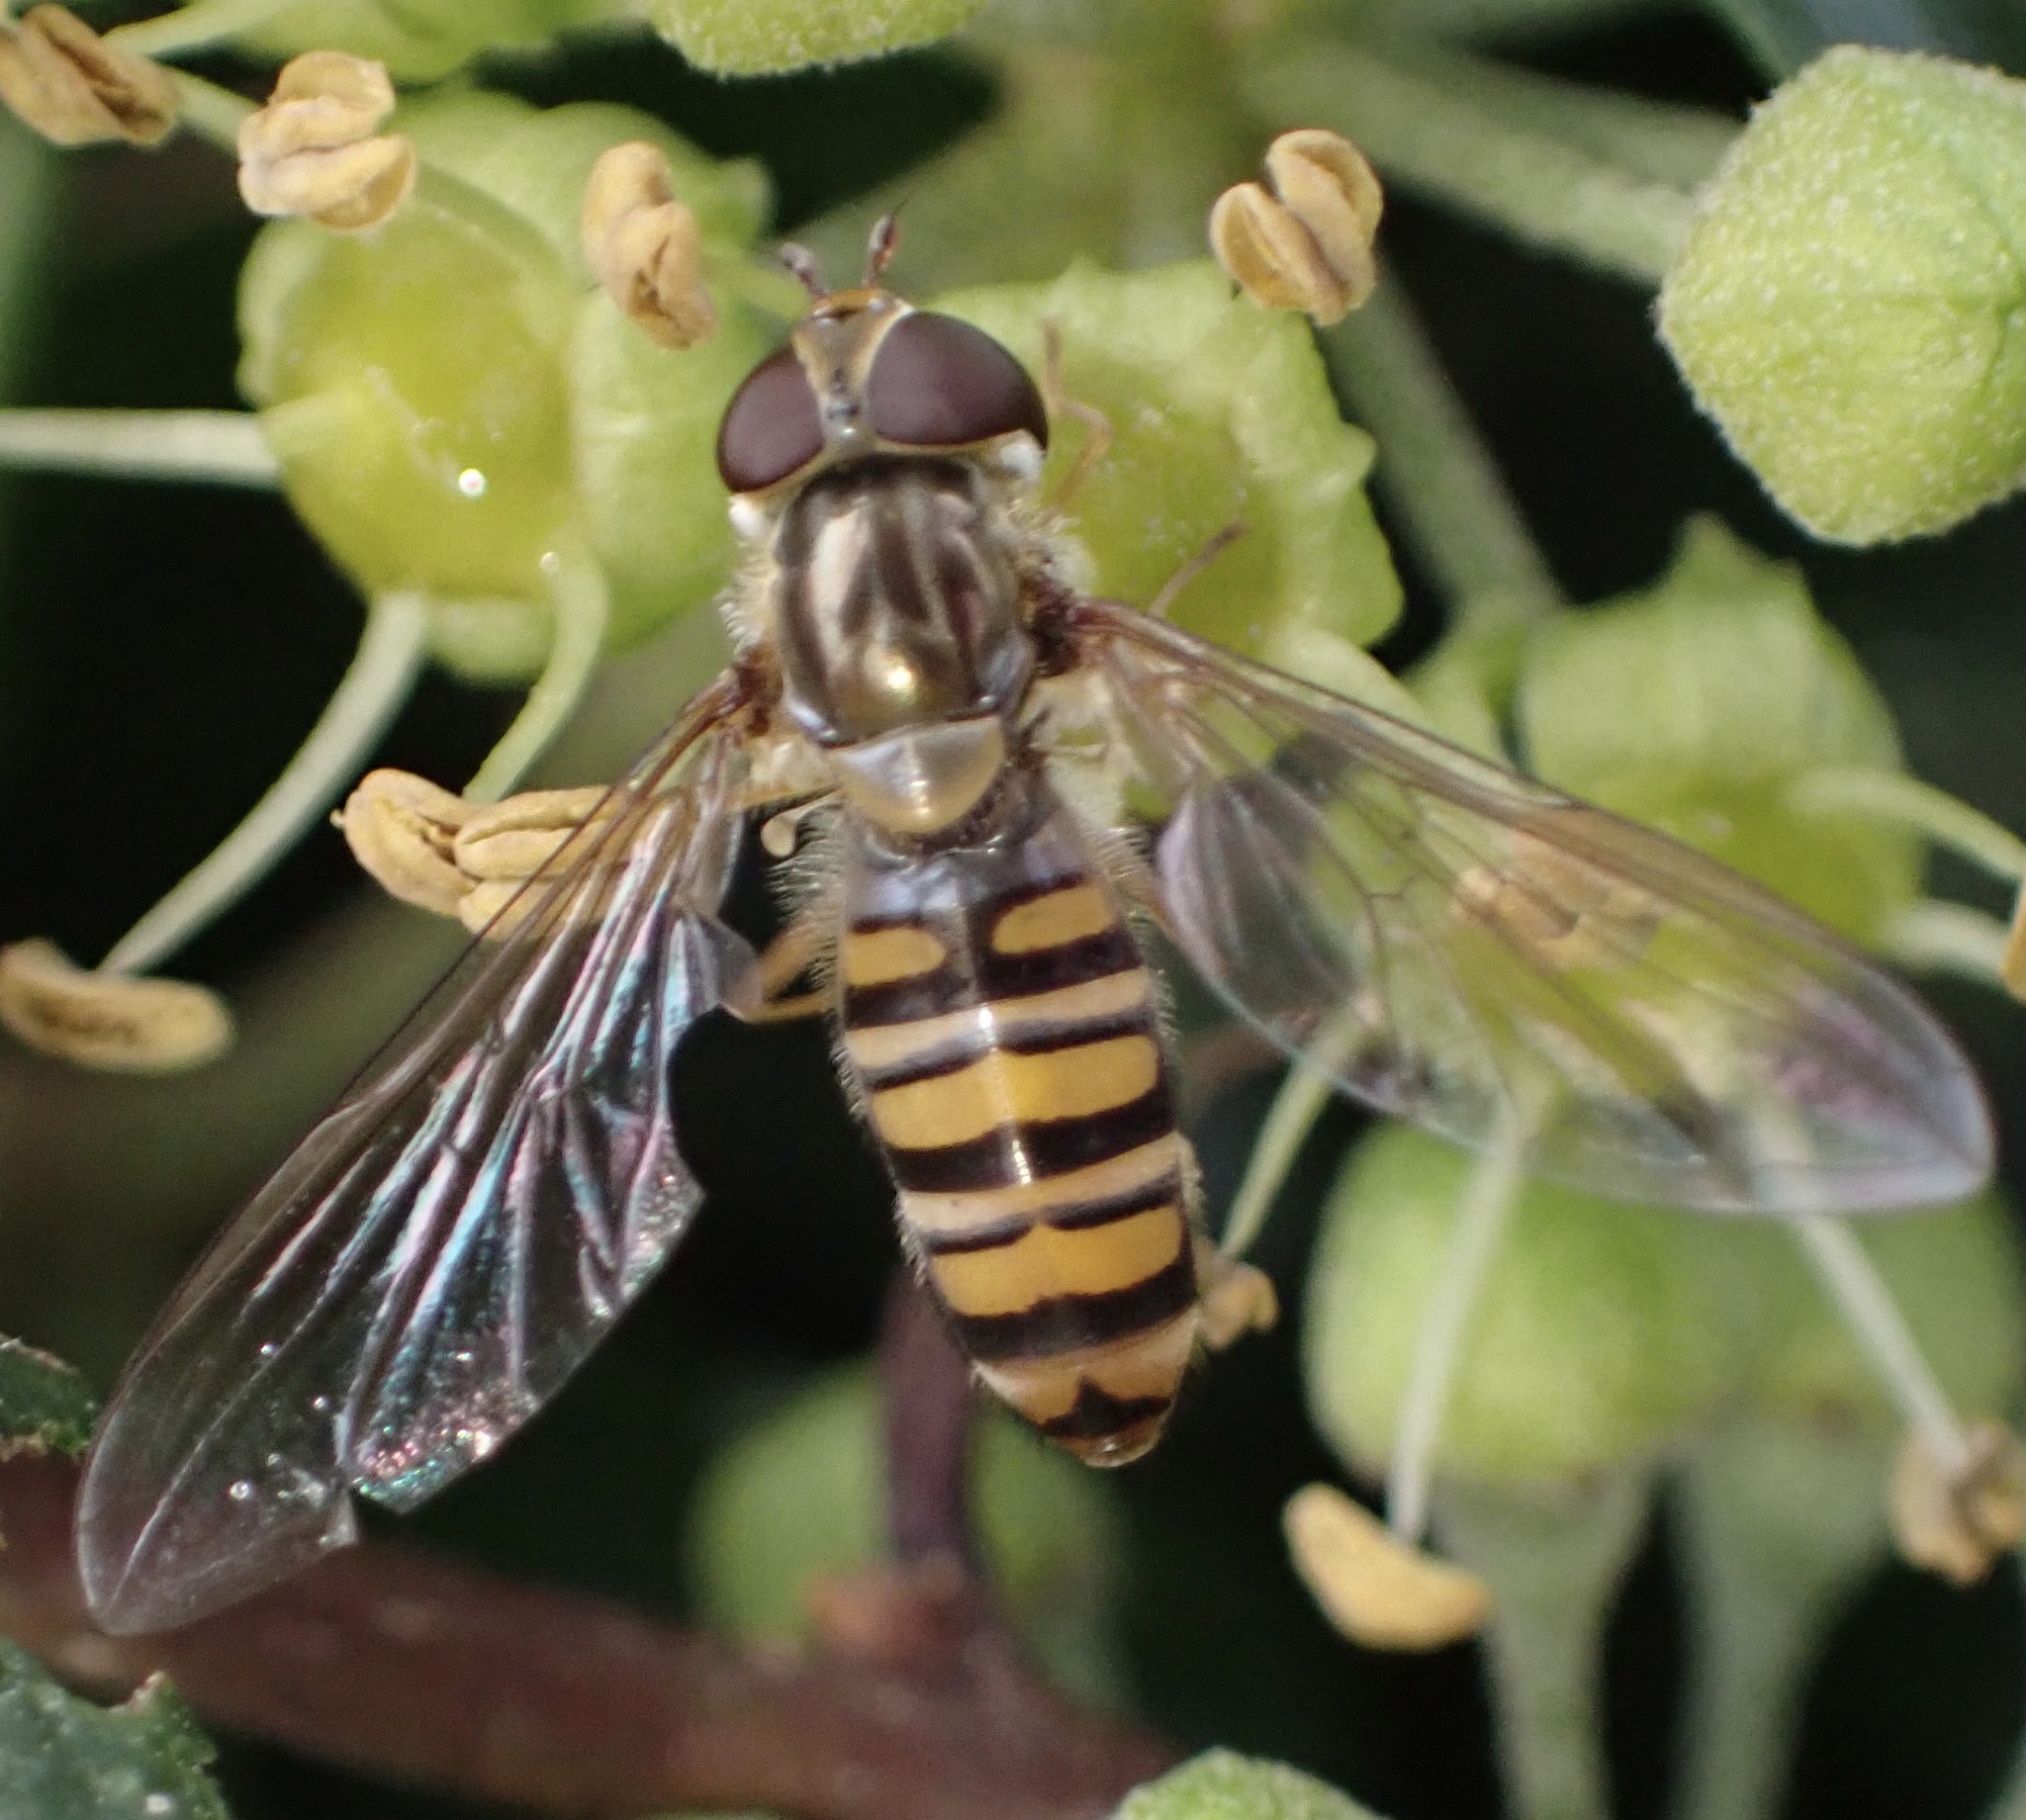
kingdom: Animalia
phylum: Arthropoda
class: Insecta
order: Diptera
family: Syrphidae
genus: Episyrphus
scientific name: Episyrphus balteatus
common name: Marmalade hoverfly
